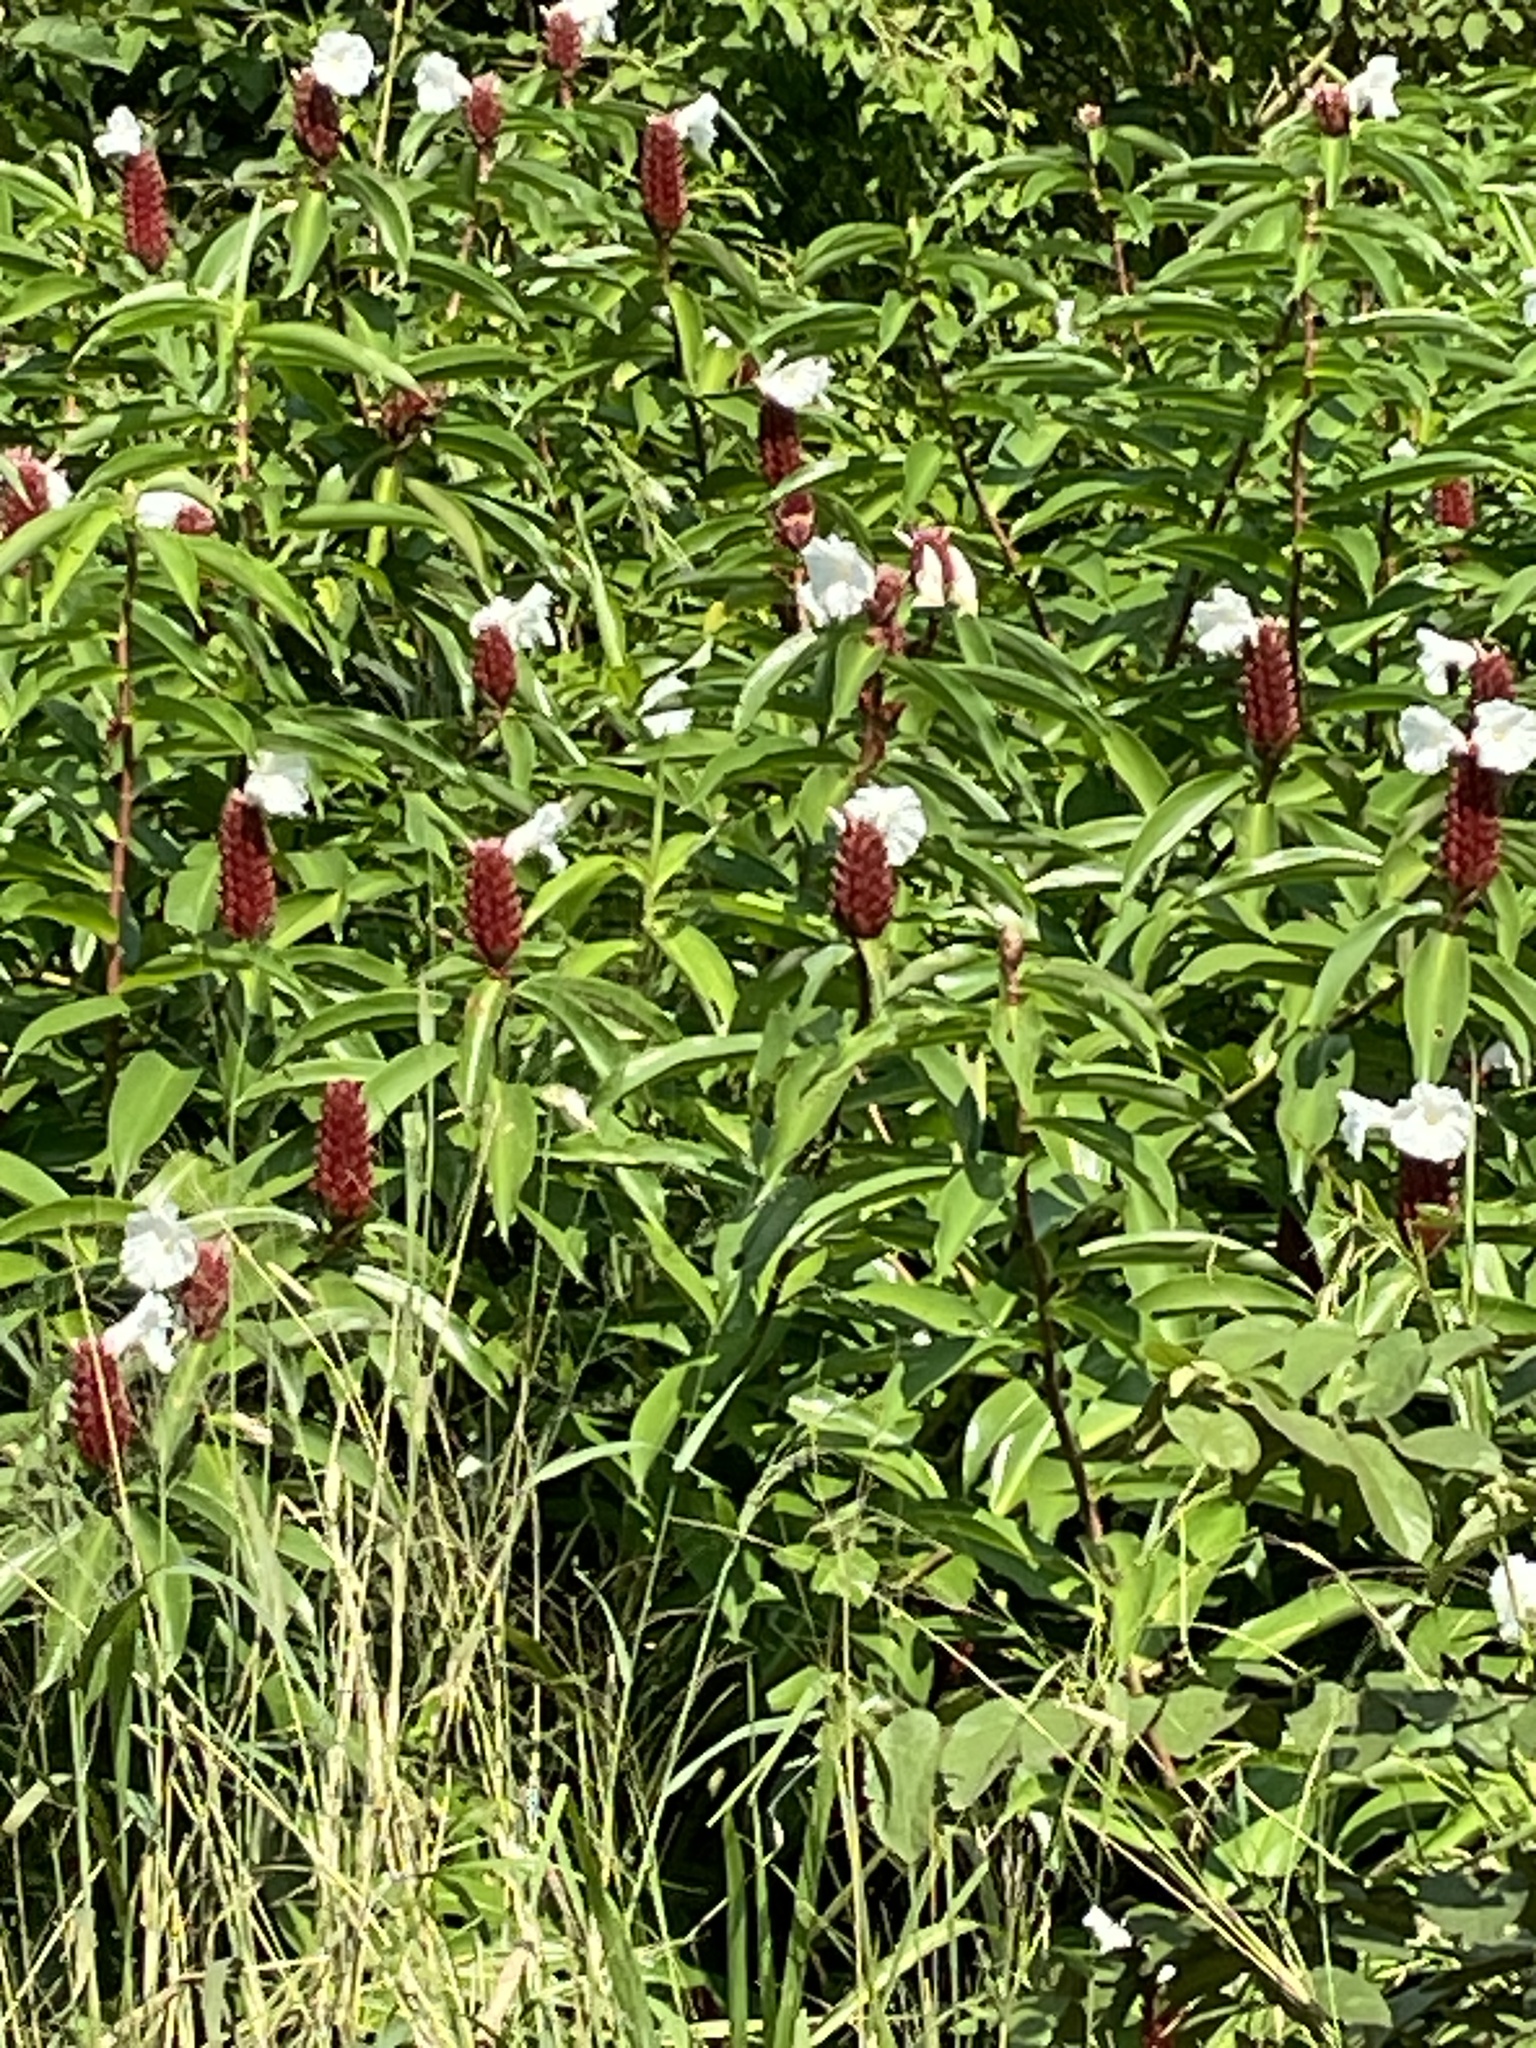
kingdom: Plantae
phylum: Tracheophyta
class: Liliopsida
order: Zingiberales
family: Costaceae
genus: Hellenia
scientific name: Hellenia speciosa
